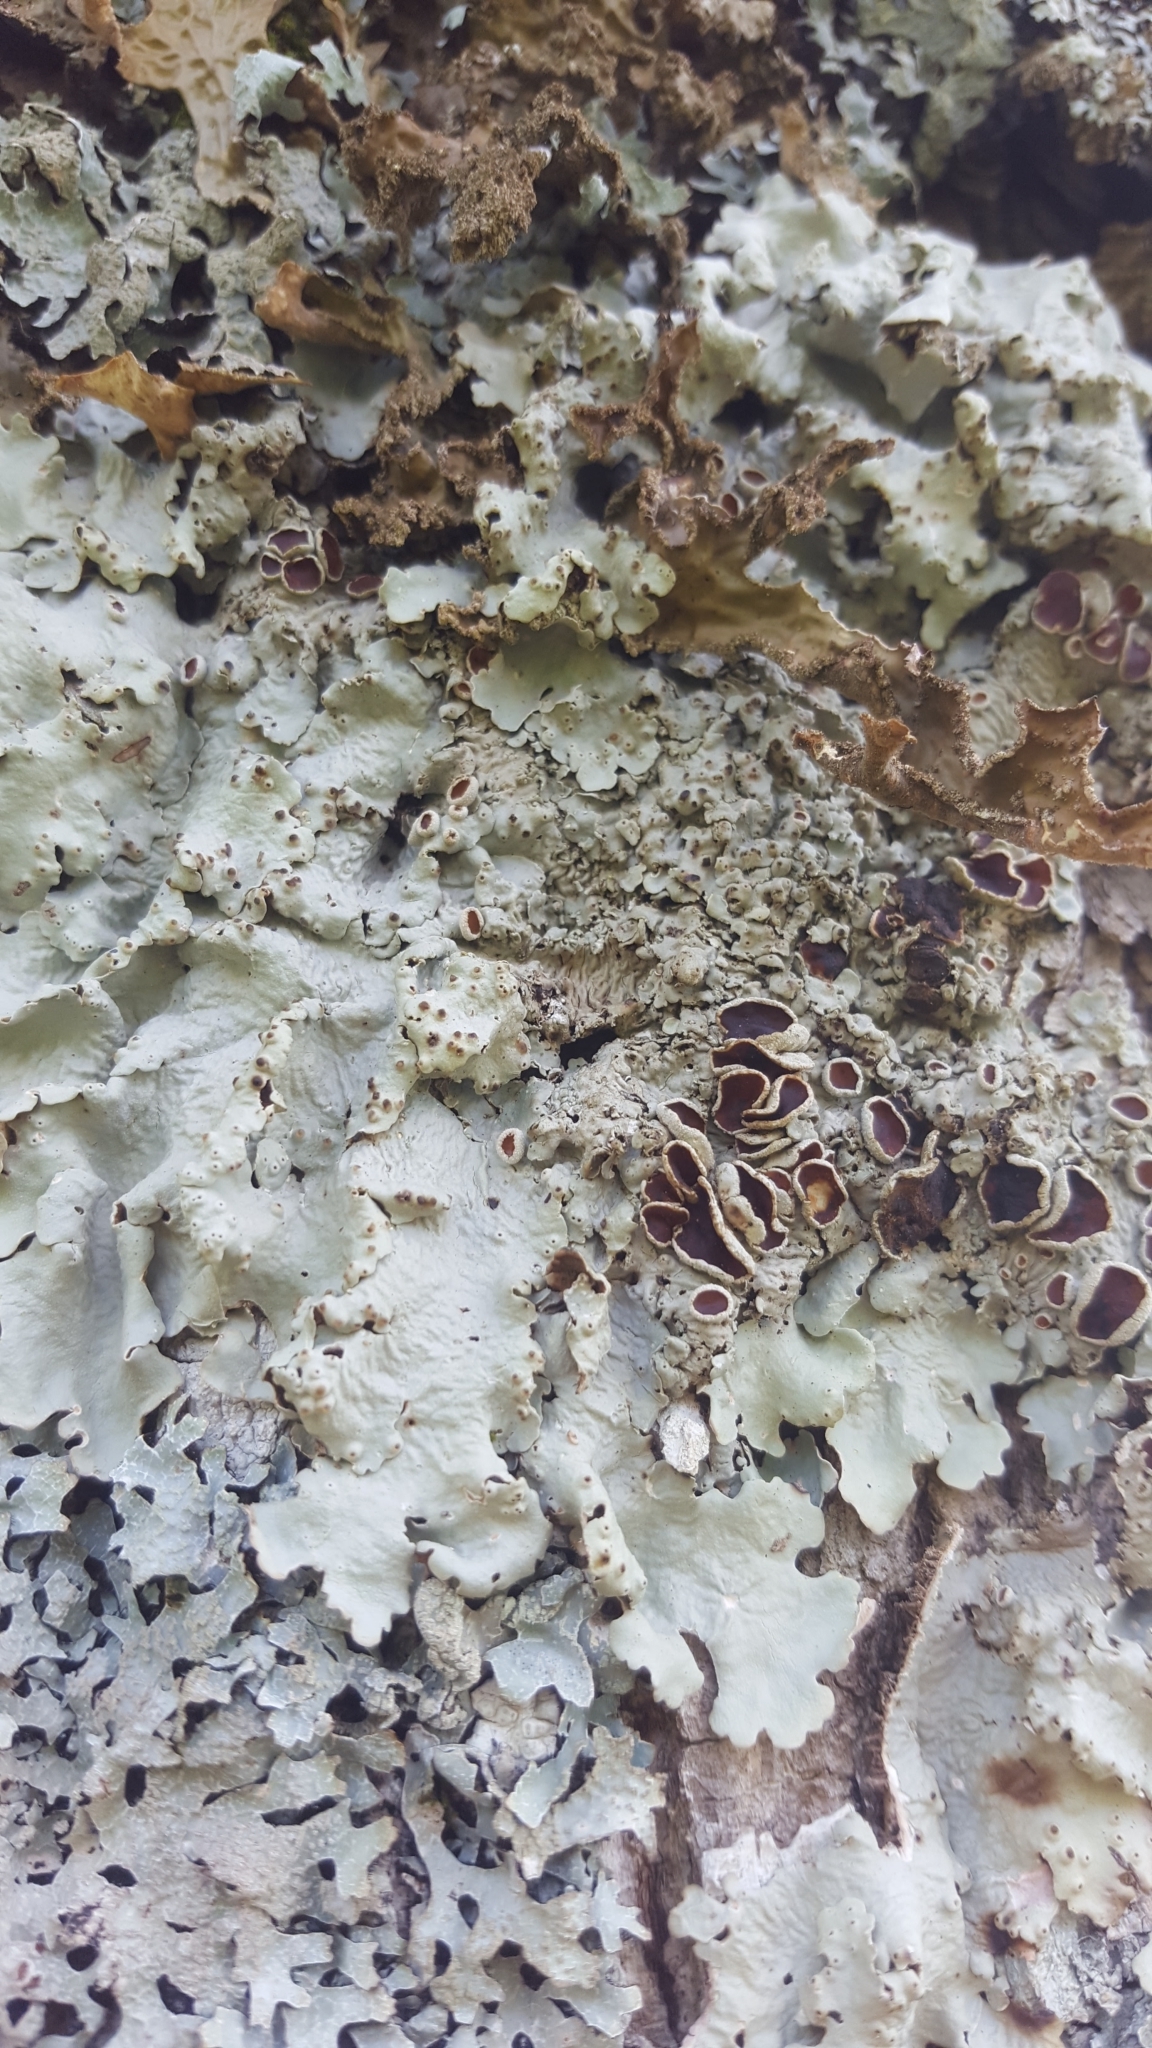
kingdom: Fungi
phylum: Ascomycota
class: Lecanoromycetes
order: Peltigerales
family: Lobariaceae
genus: Ricasolia
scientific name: Ricasolia quercizans
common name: Smooth lungwort
